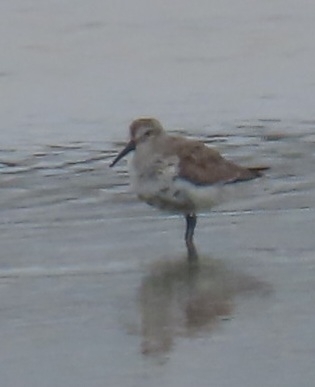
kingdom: Animalia
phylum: Chordata
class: Aves
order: Charadriiformes
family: Scolopacidae
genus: Calidris
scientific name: Calidris alpina
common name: Dunlin
